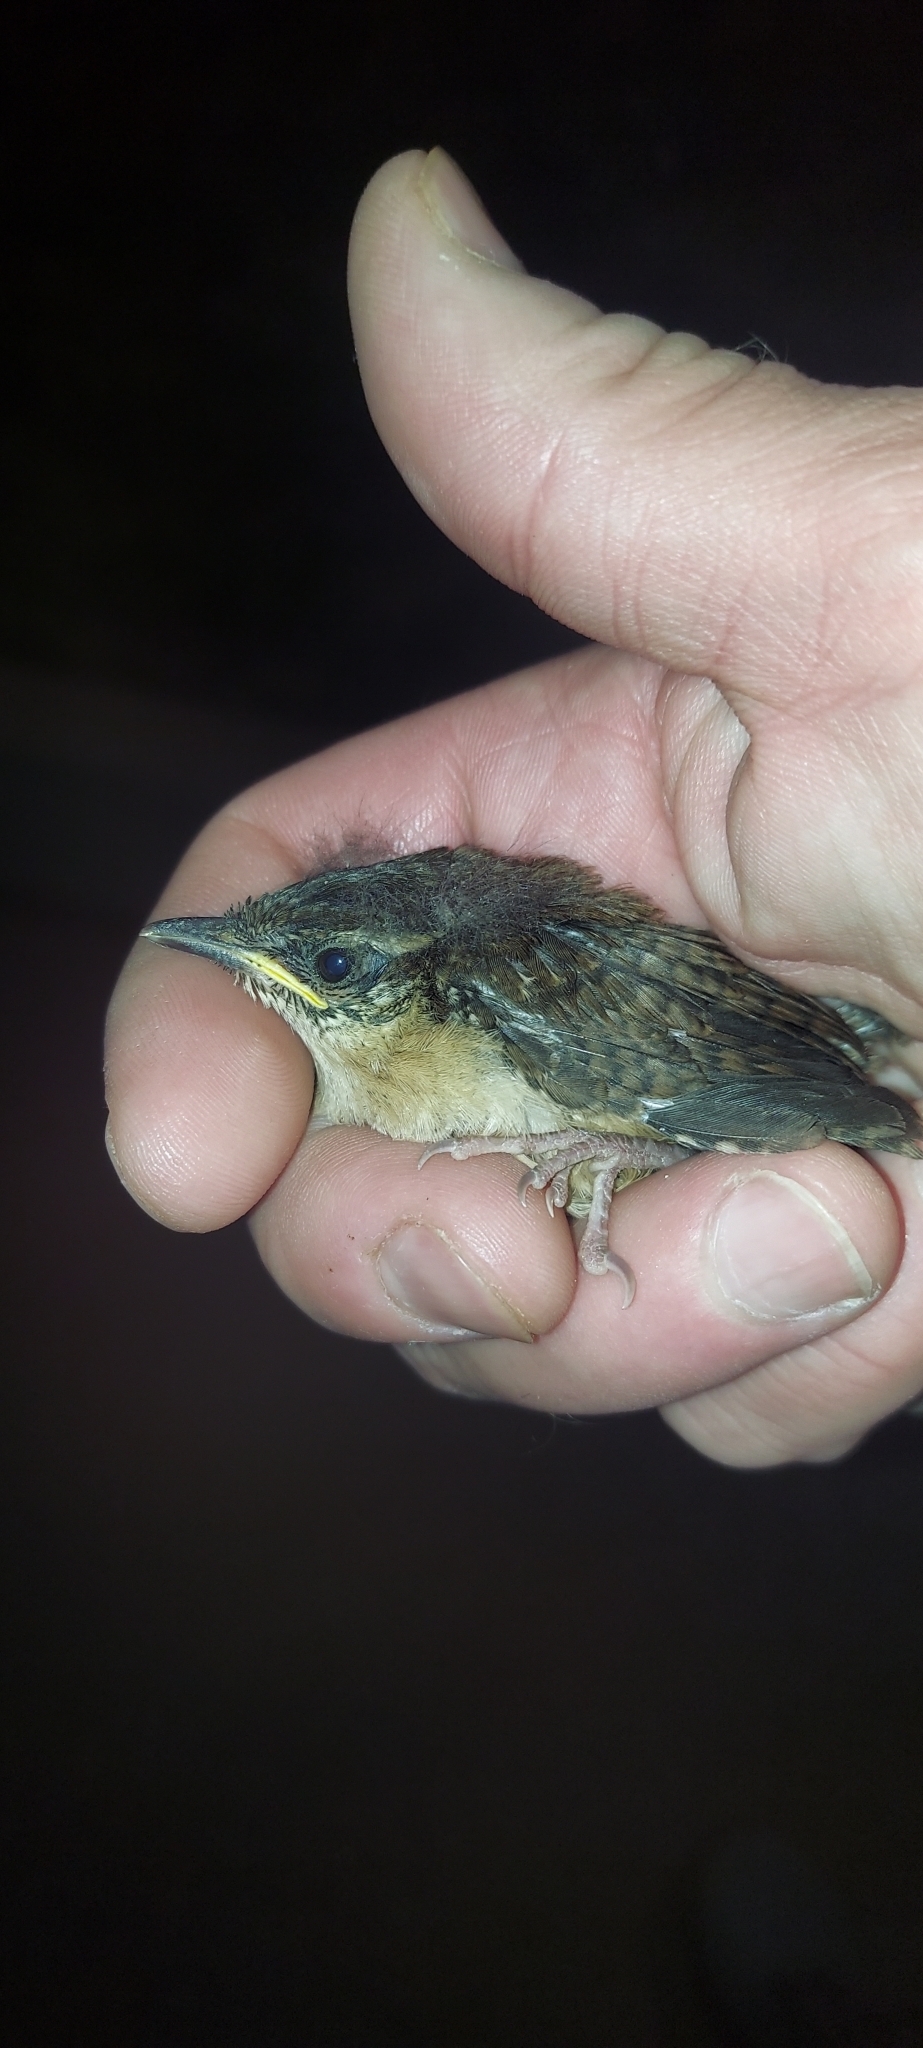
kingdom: Animalia
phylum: Chordata
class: Aves
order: Passeriformes
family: Troglodytidae
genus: Thryothorus
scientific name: Thryothorus ludovicianus
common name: Carolina wren
